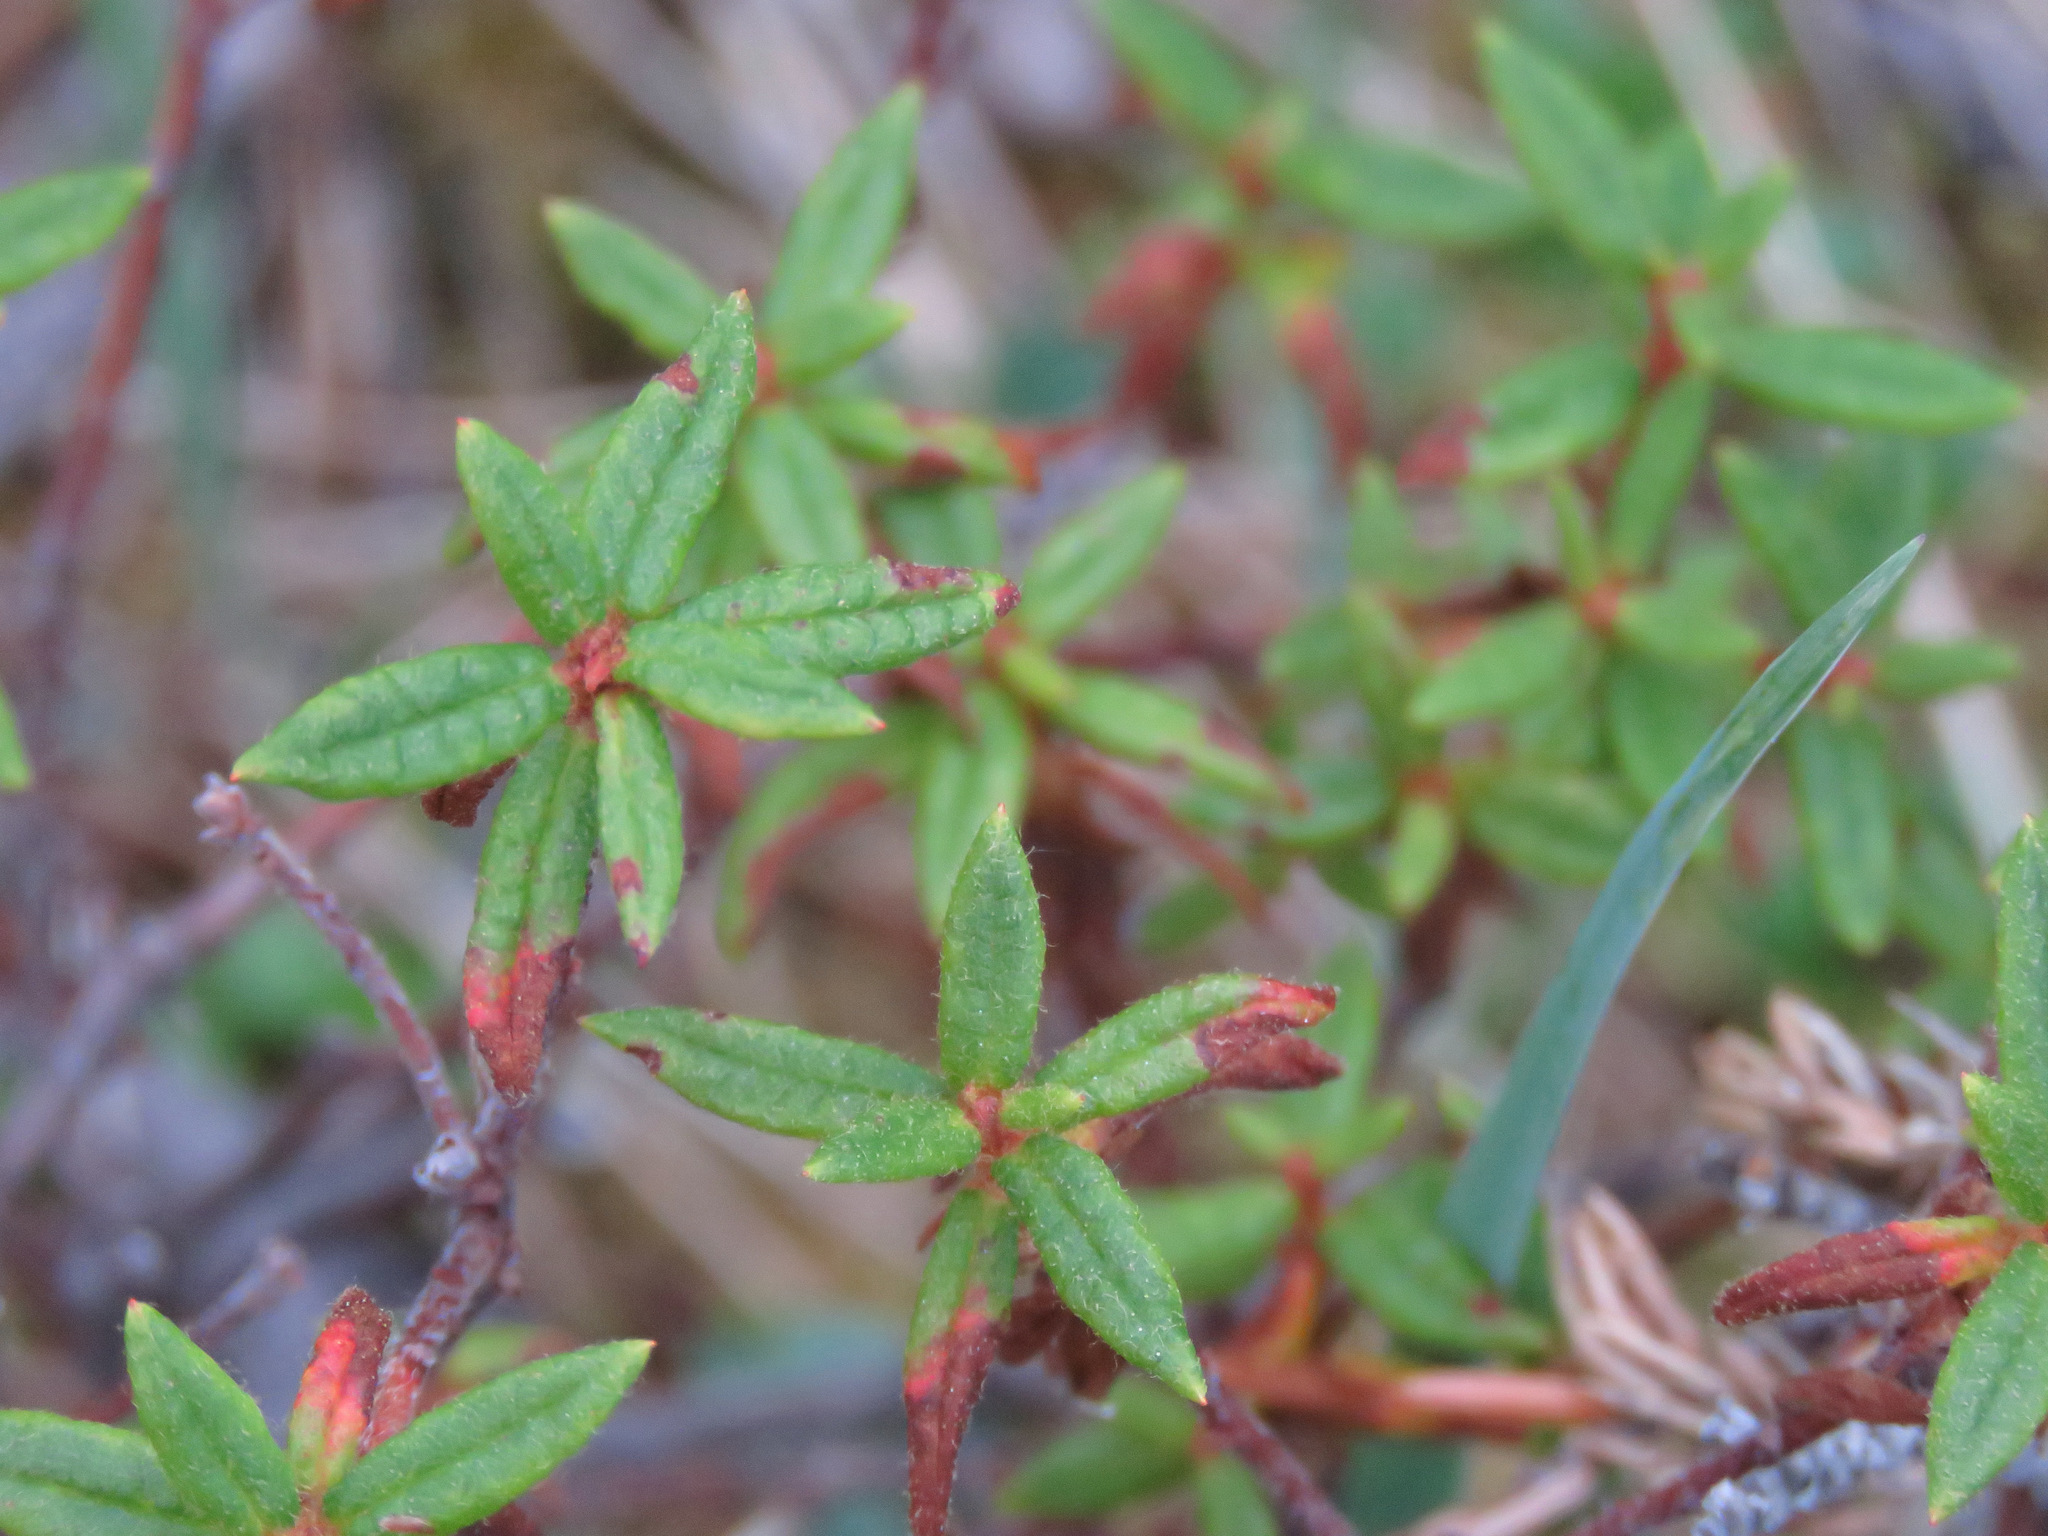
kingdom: Plantae
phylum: Tracheophyta
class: Magnoliopsida
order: Ericales
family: Ericaceae
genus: Rhododendron
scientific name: Rhododendron groenlandicum
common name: Bog labrador tea
